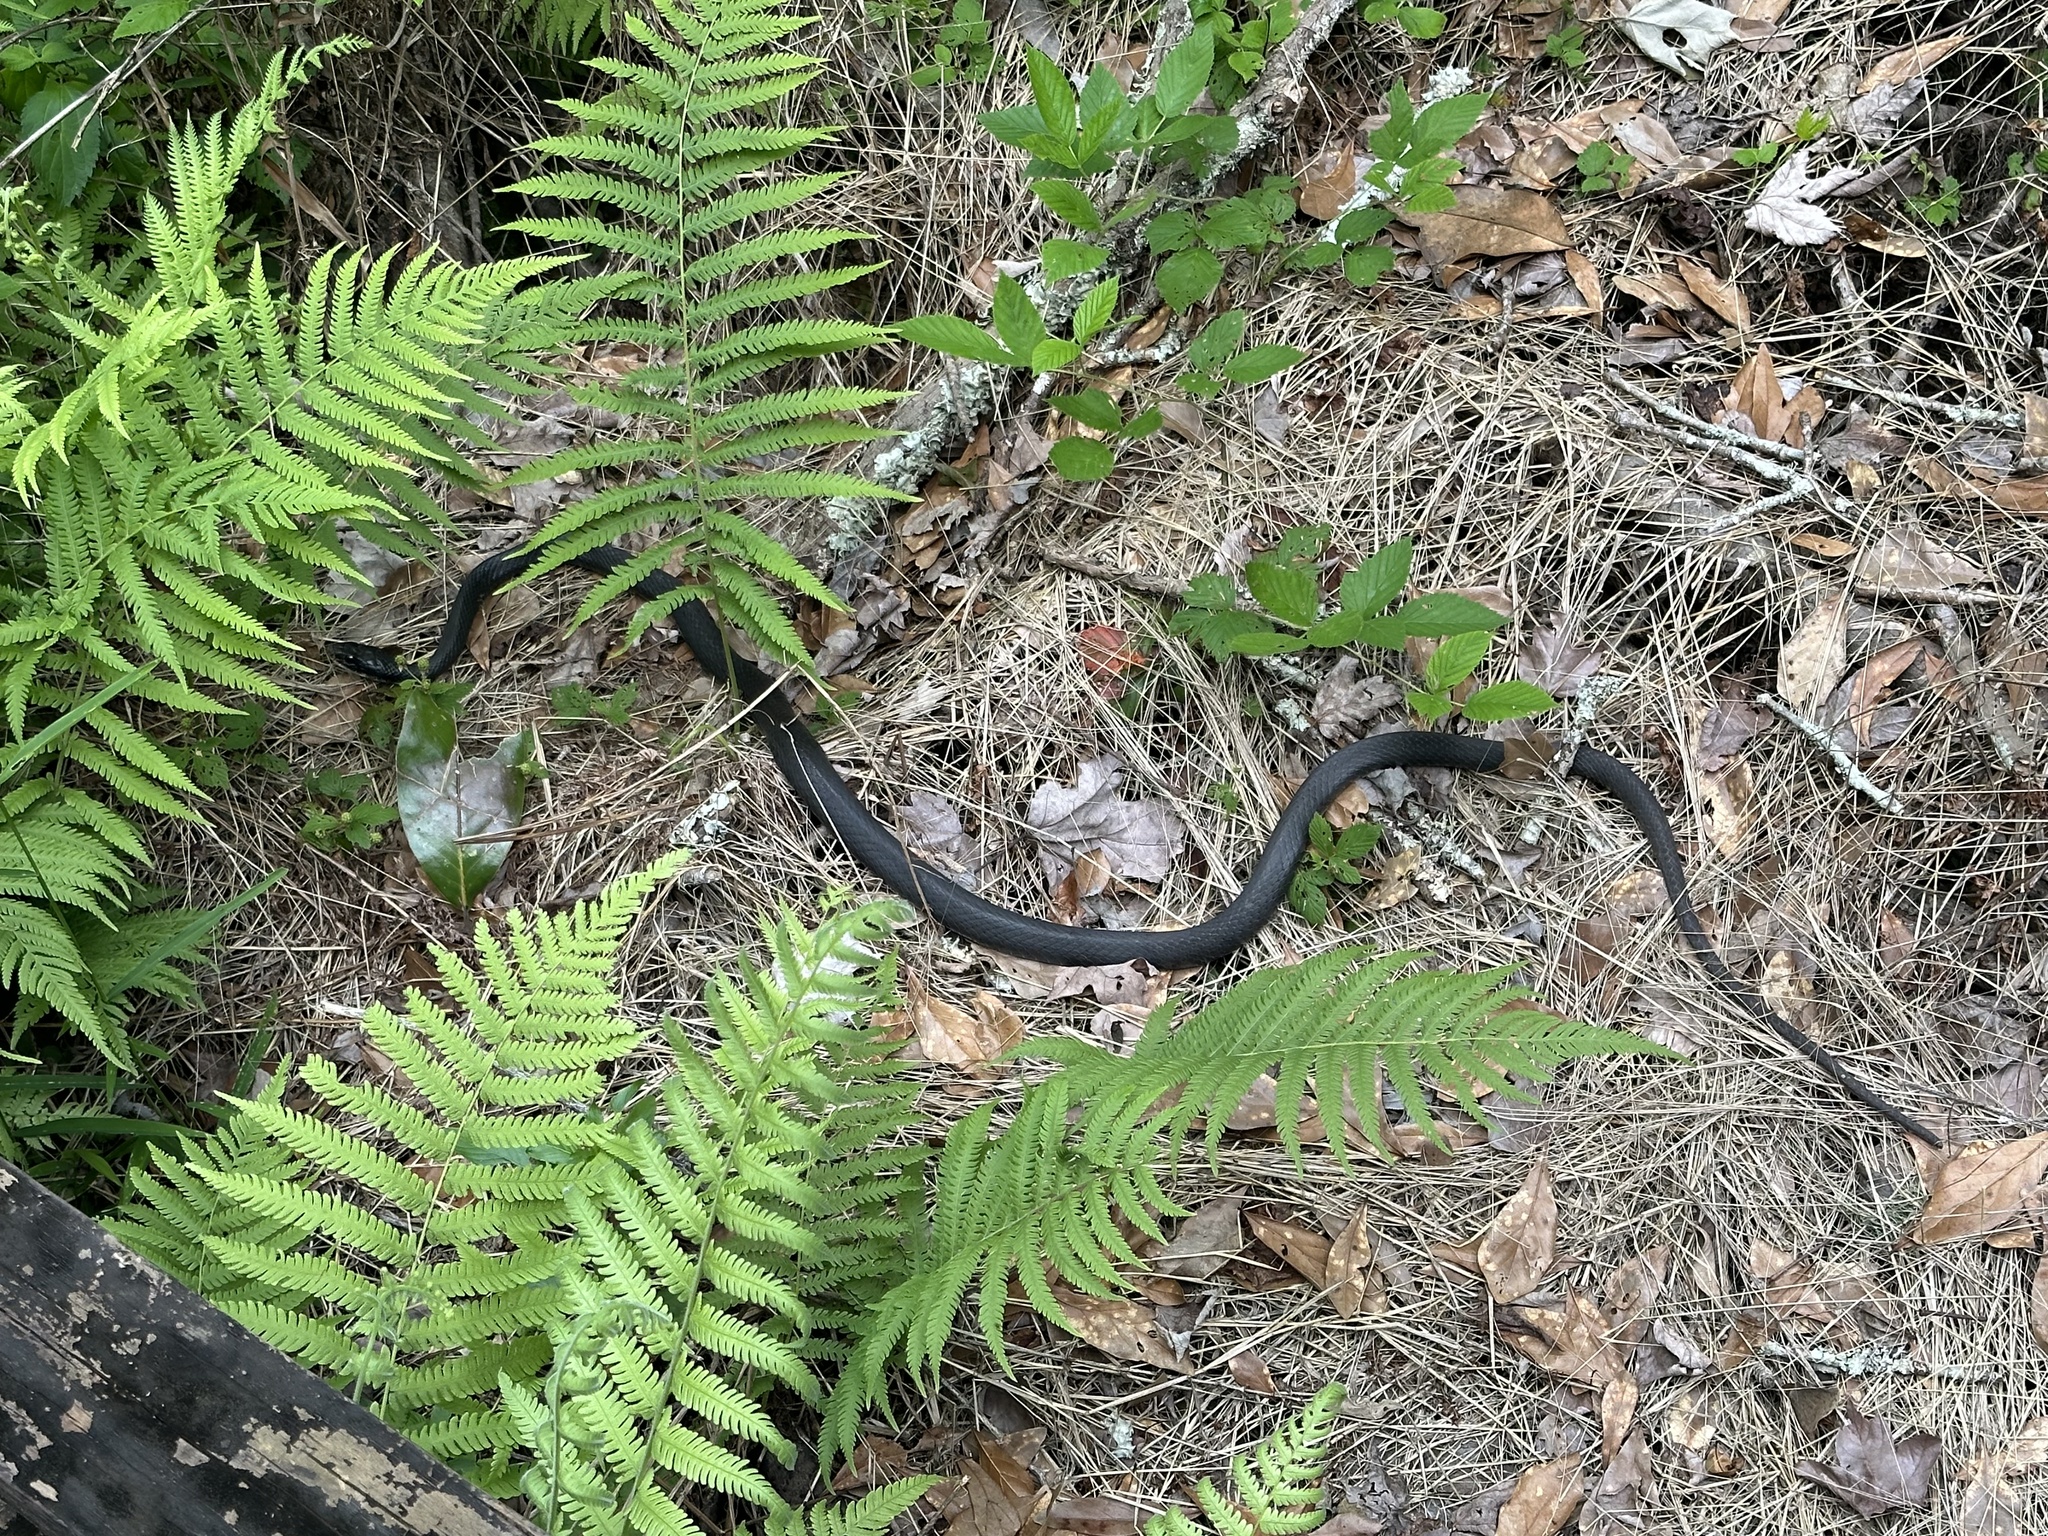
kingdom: Animalia
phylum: Chordata
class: Squamata
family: Colubridae
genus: Coluber
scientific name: Coluber constrictor
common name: Eastern racer
